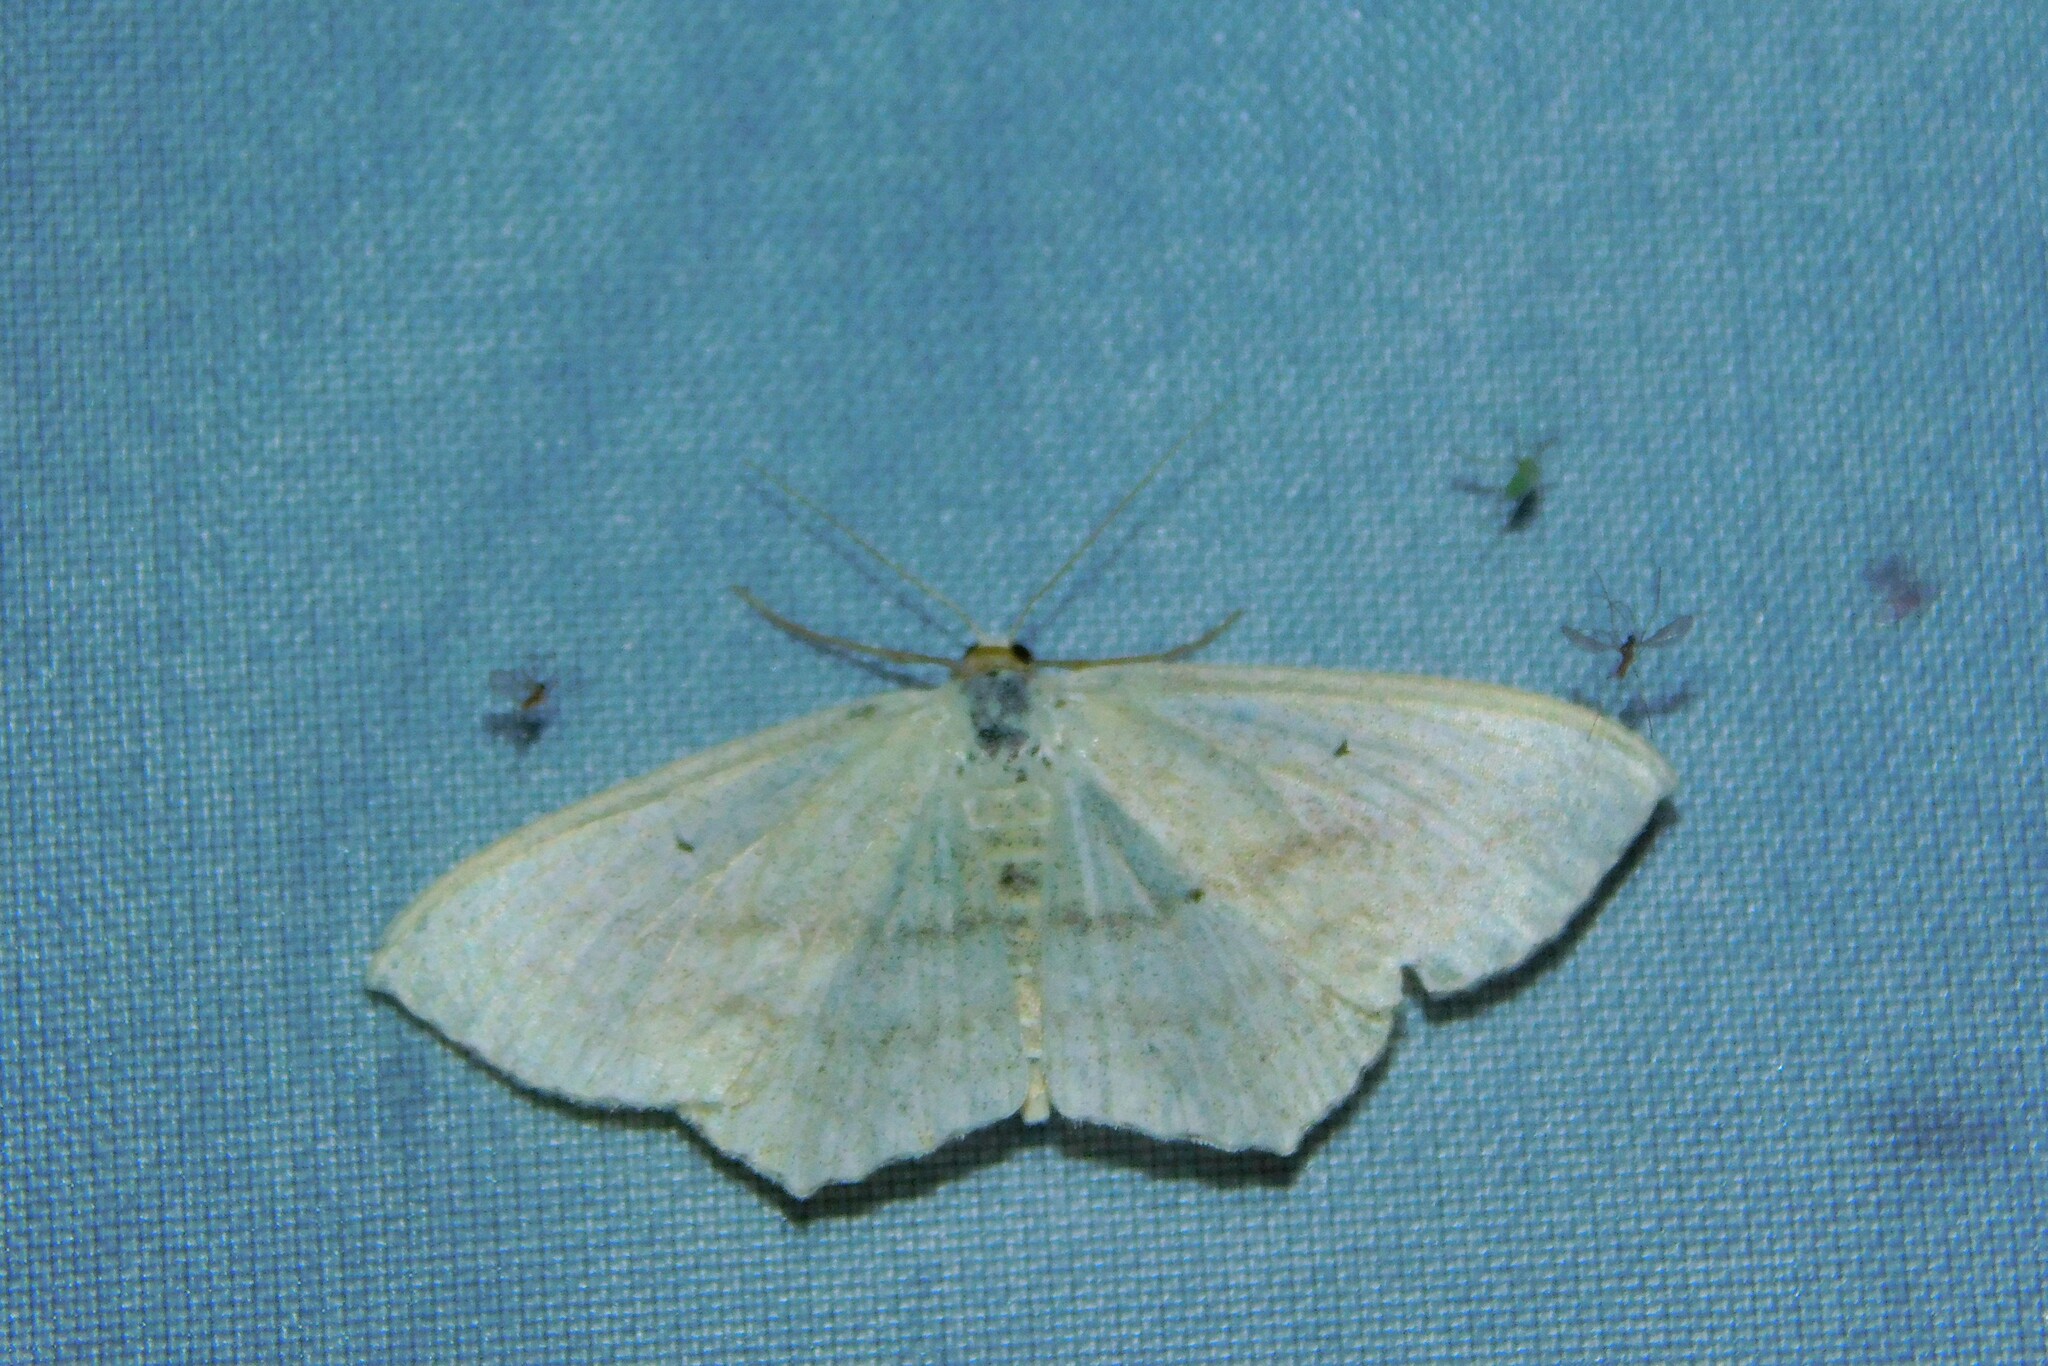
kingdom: Animalia
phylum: Arthropoda
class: Insecta
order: Lepidoptera
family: Geometridae
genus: Scopula
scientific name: Scopula nigropunctata
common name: Sub-angled wave
